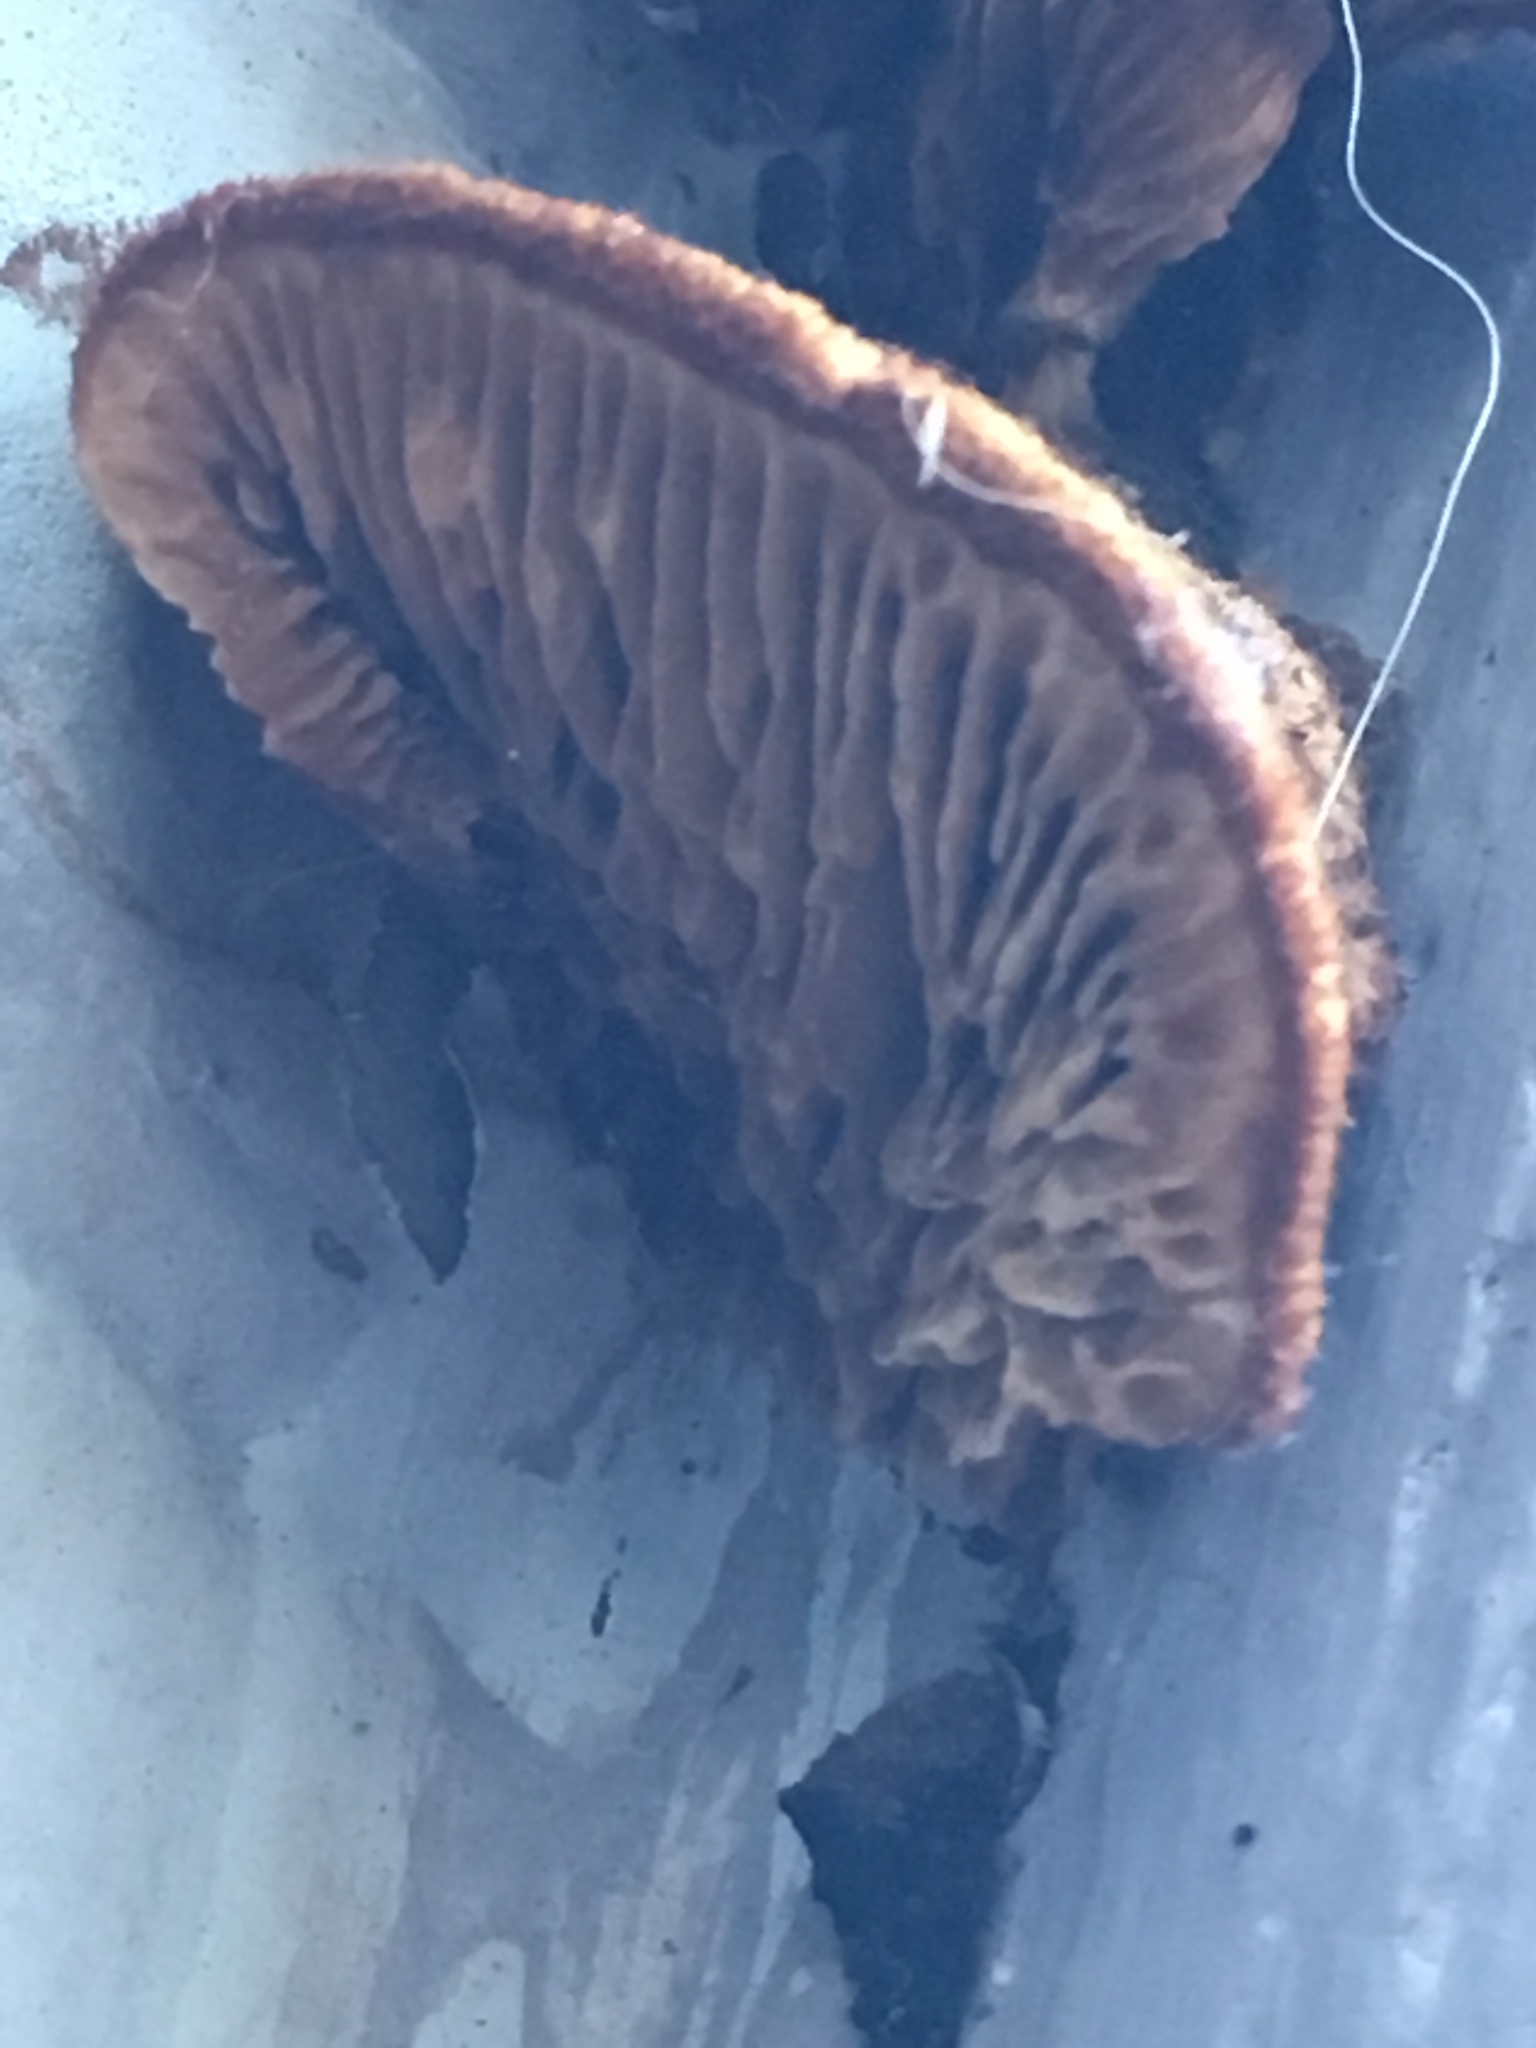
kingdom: Fungi
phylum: Basidiomycota
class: Agaricomycetes
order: Gloeophyllales
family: Gloeophyllaceae
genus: Gloeophyllum
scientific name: Gloeophyllum sepiarium
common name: Conifer mazegill
